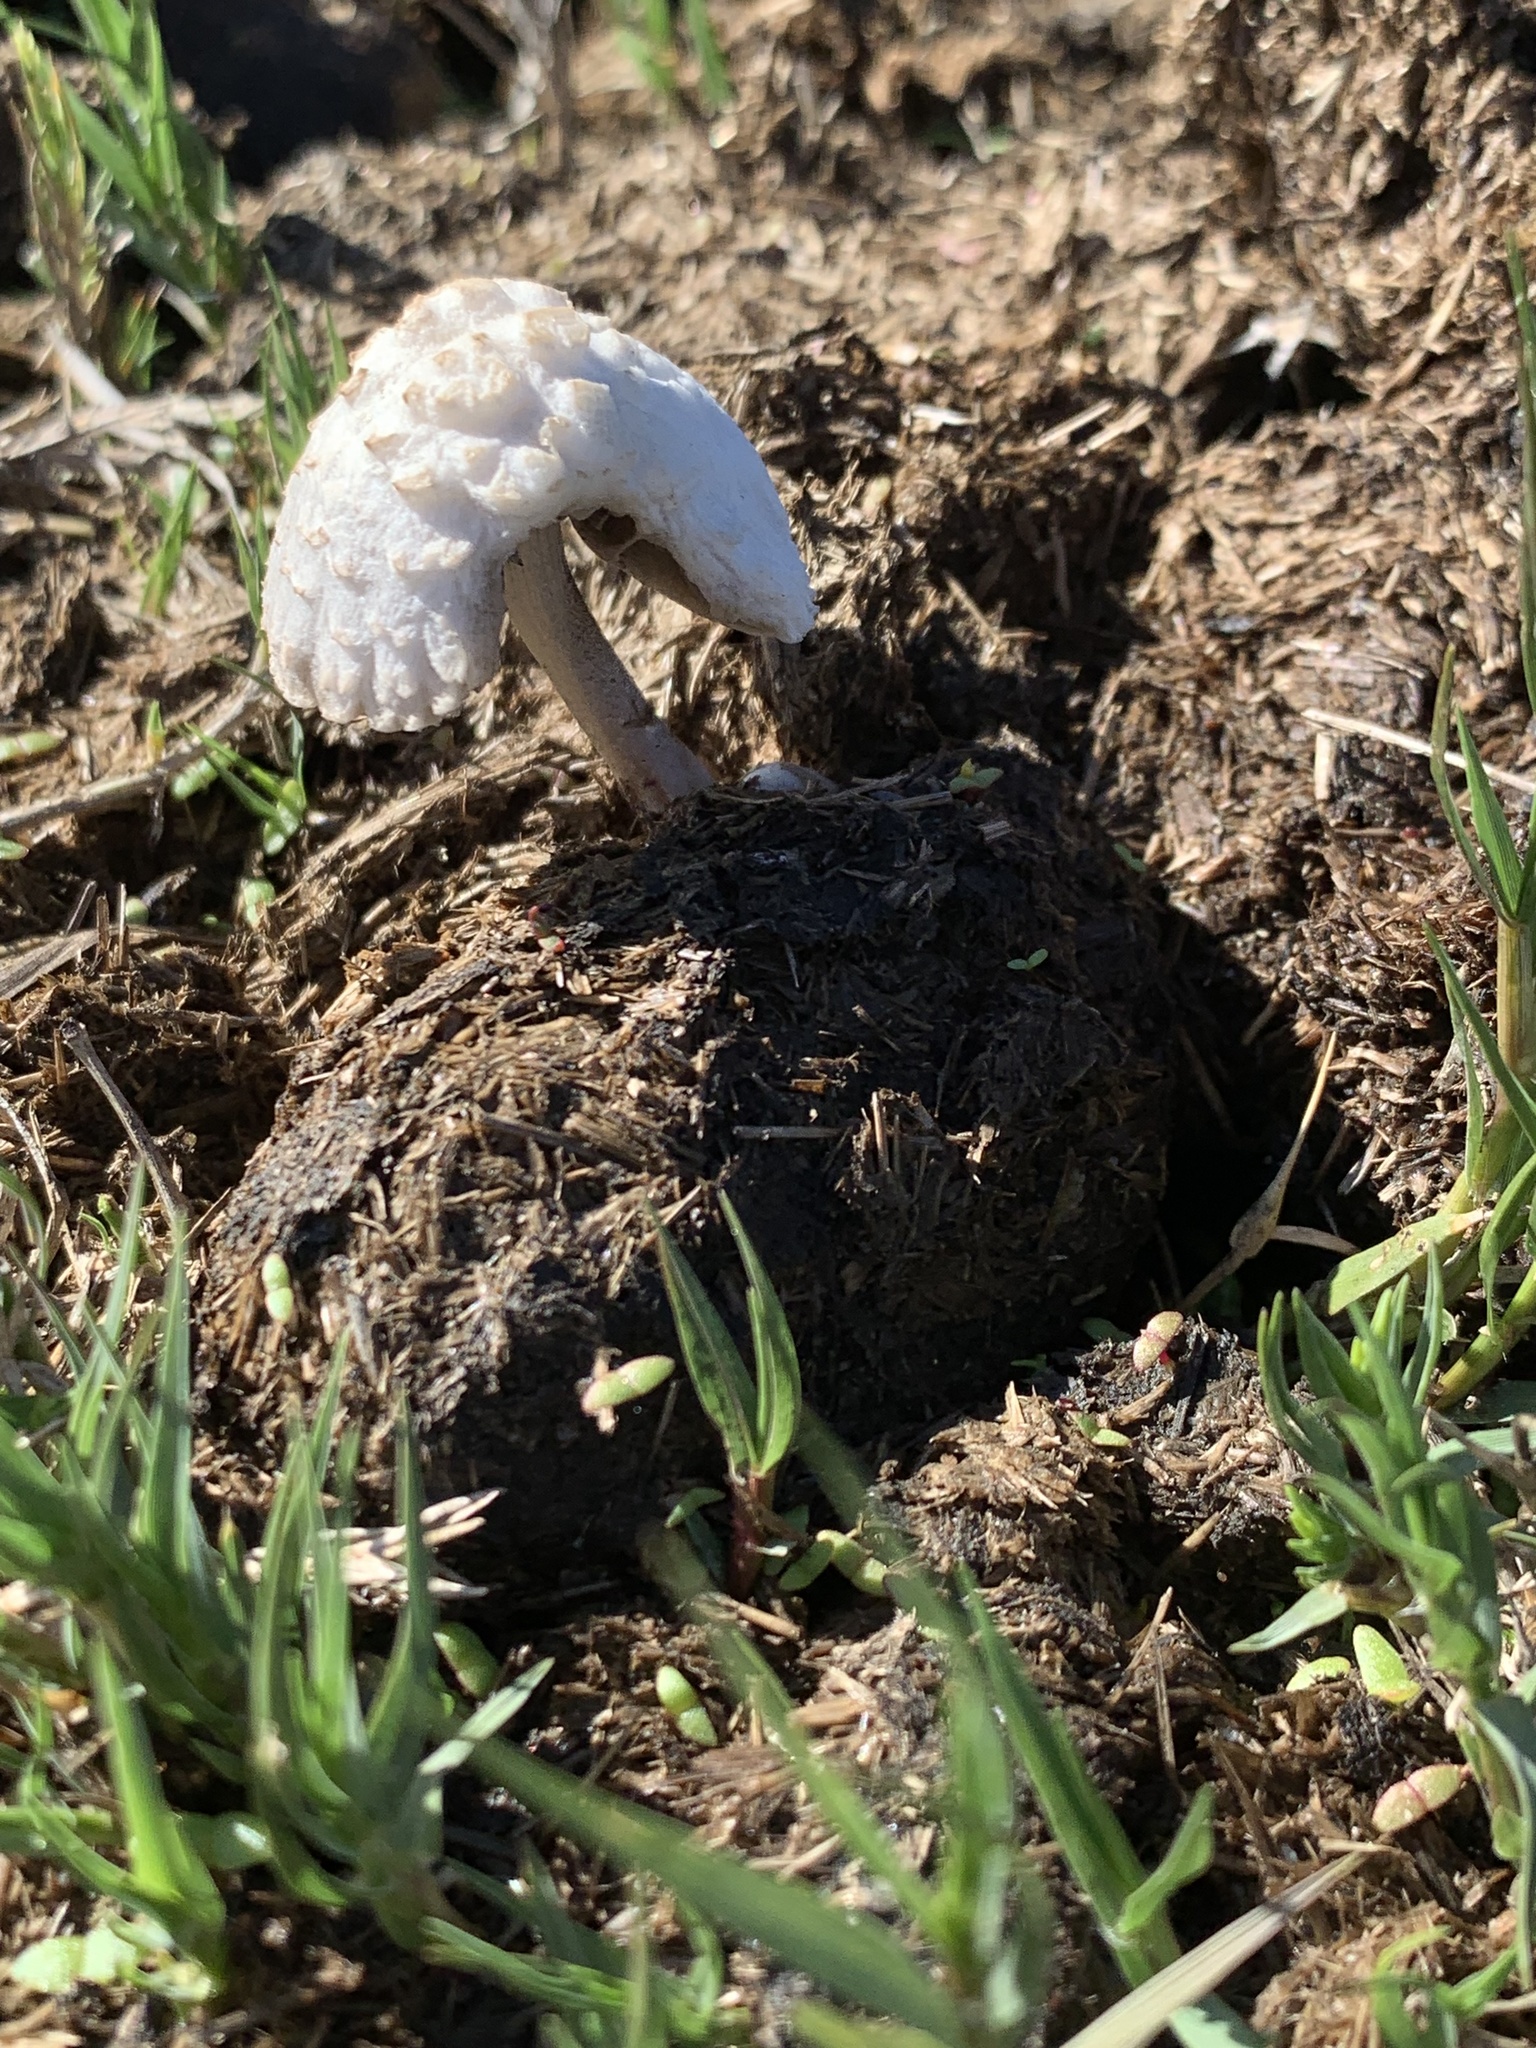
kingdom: Fungi
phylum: Basidiomycota
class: Agaricomycetes
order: Agaricales
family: Bolbitiaceae
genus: Panaeolus
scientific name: Panaeolus antillarum
